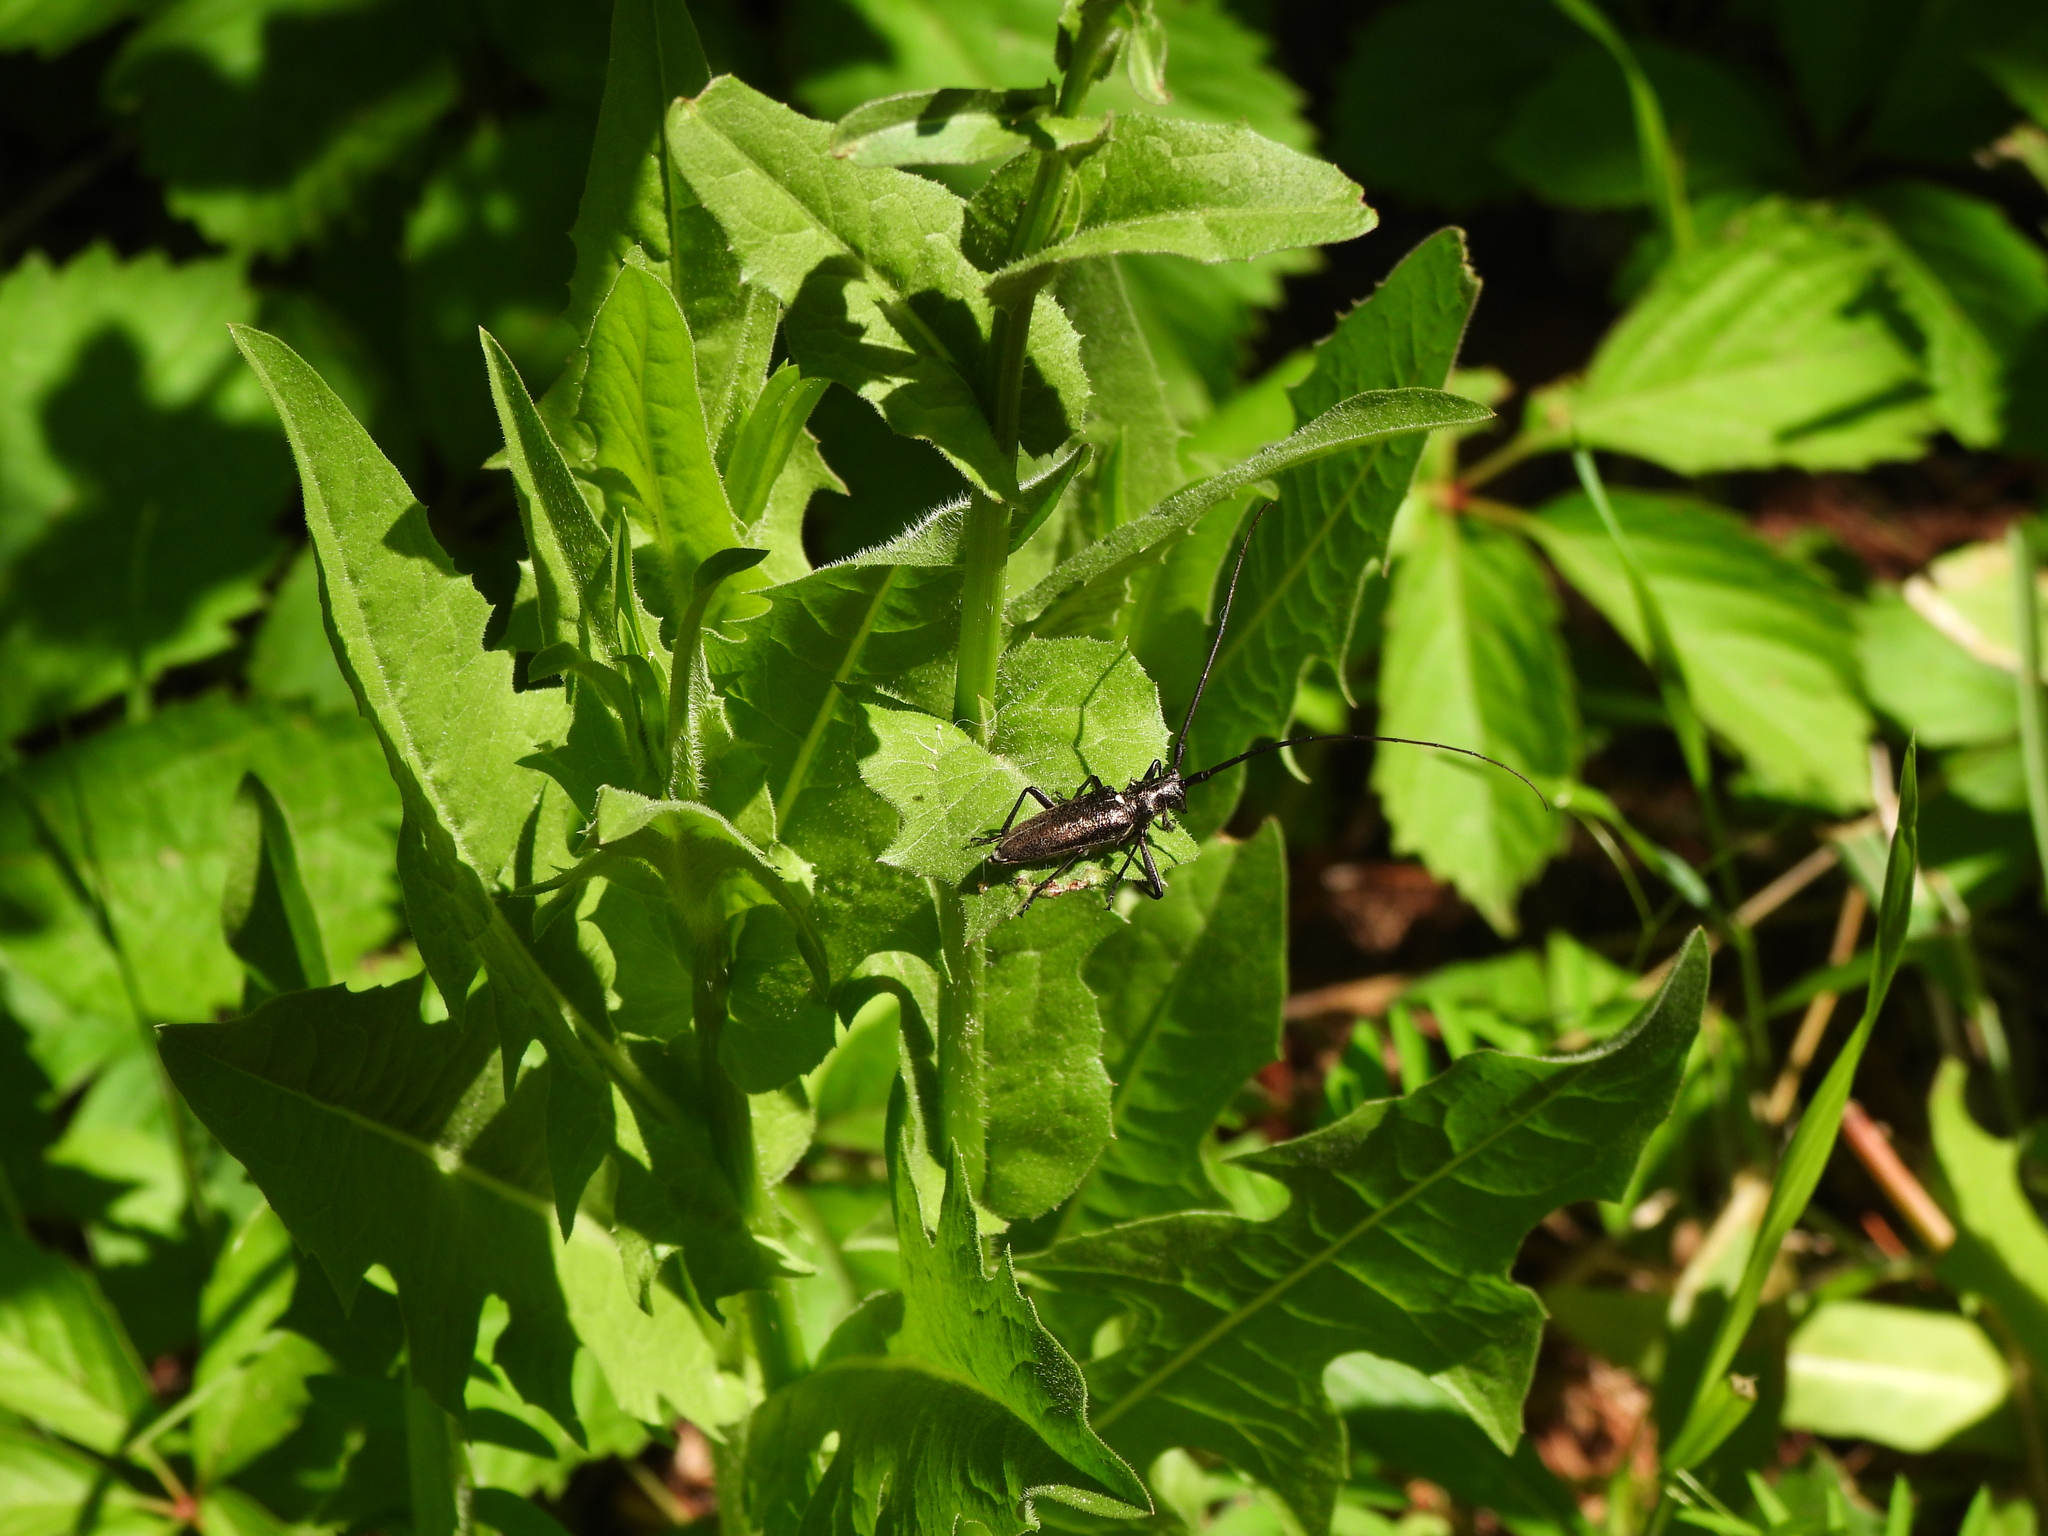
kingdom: Animalia
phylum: Arthropoda
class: Insecta
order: Coleoptera
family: Cerambycidae
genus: Monochamus
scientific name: Monochamus scutellatus
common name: White-spotted sawyer beetle
